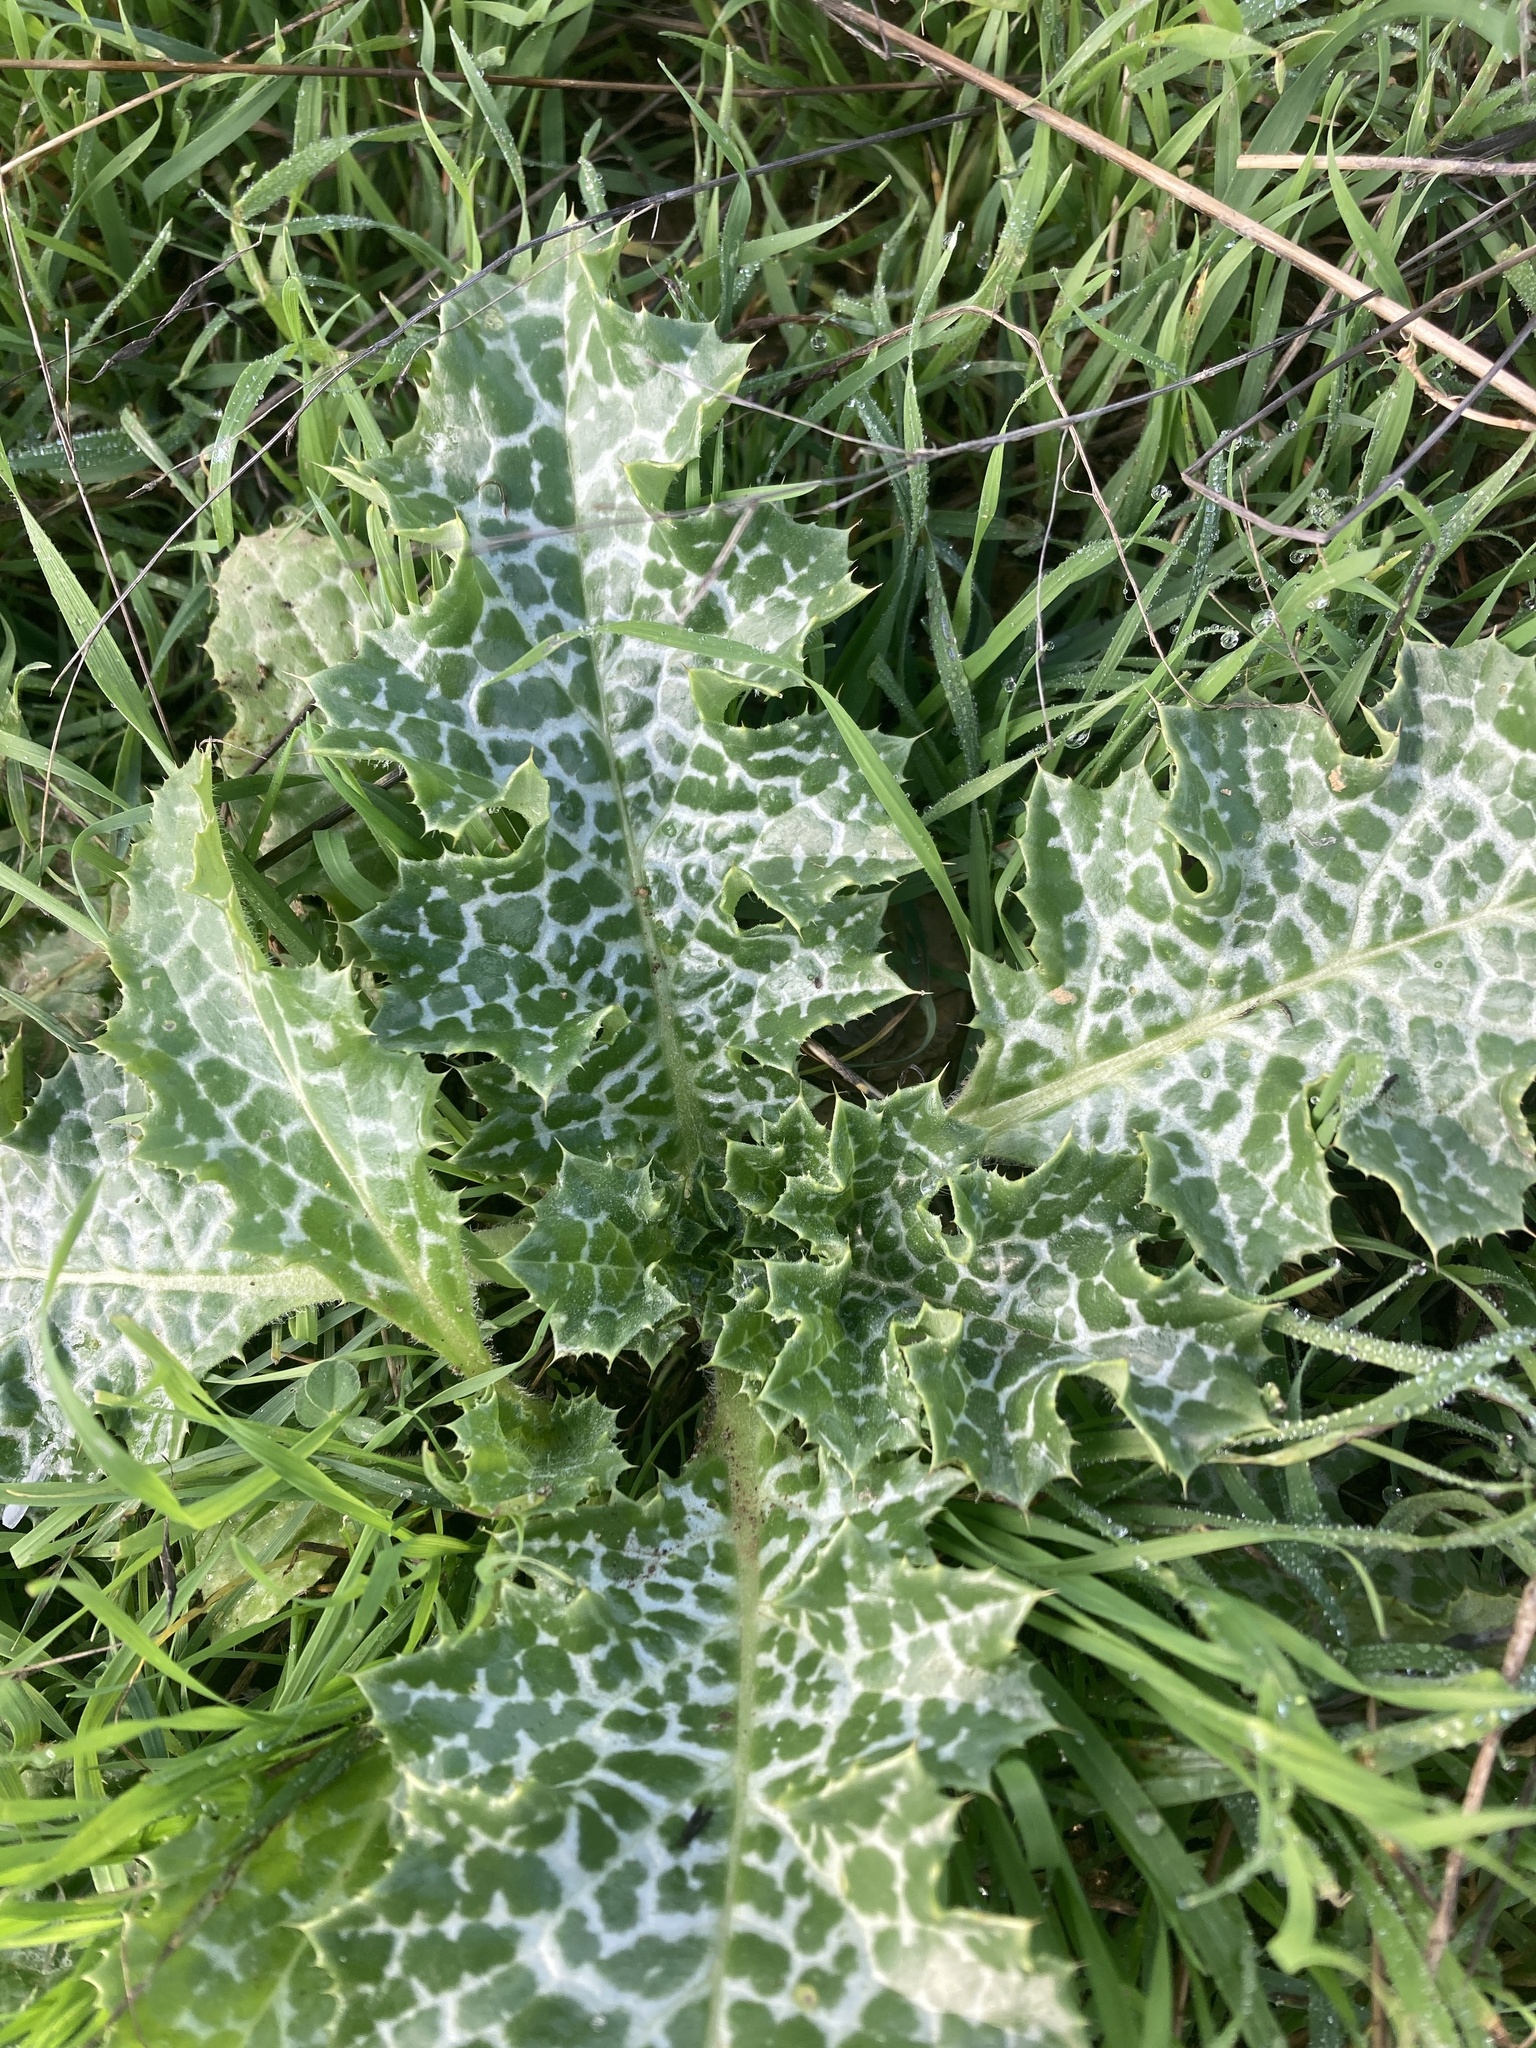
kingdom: Plantae
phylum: Tracheophyta
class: Magnoliopsida
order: Asterales
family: Asteraceae
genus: Silybum
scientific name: Silybum marianum
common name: Milk thistle
